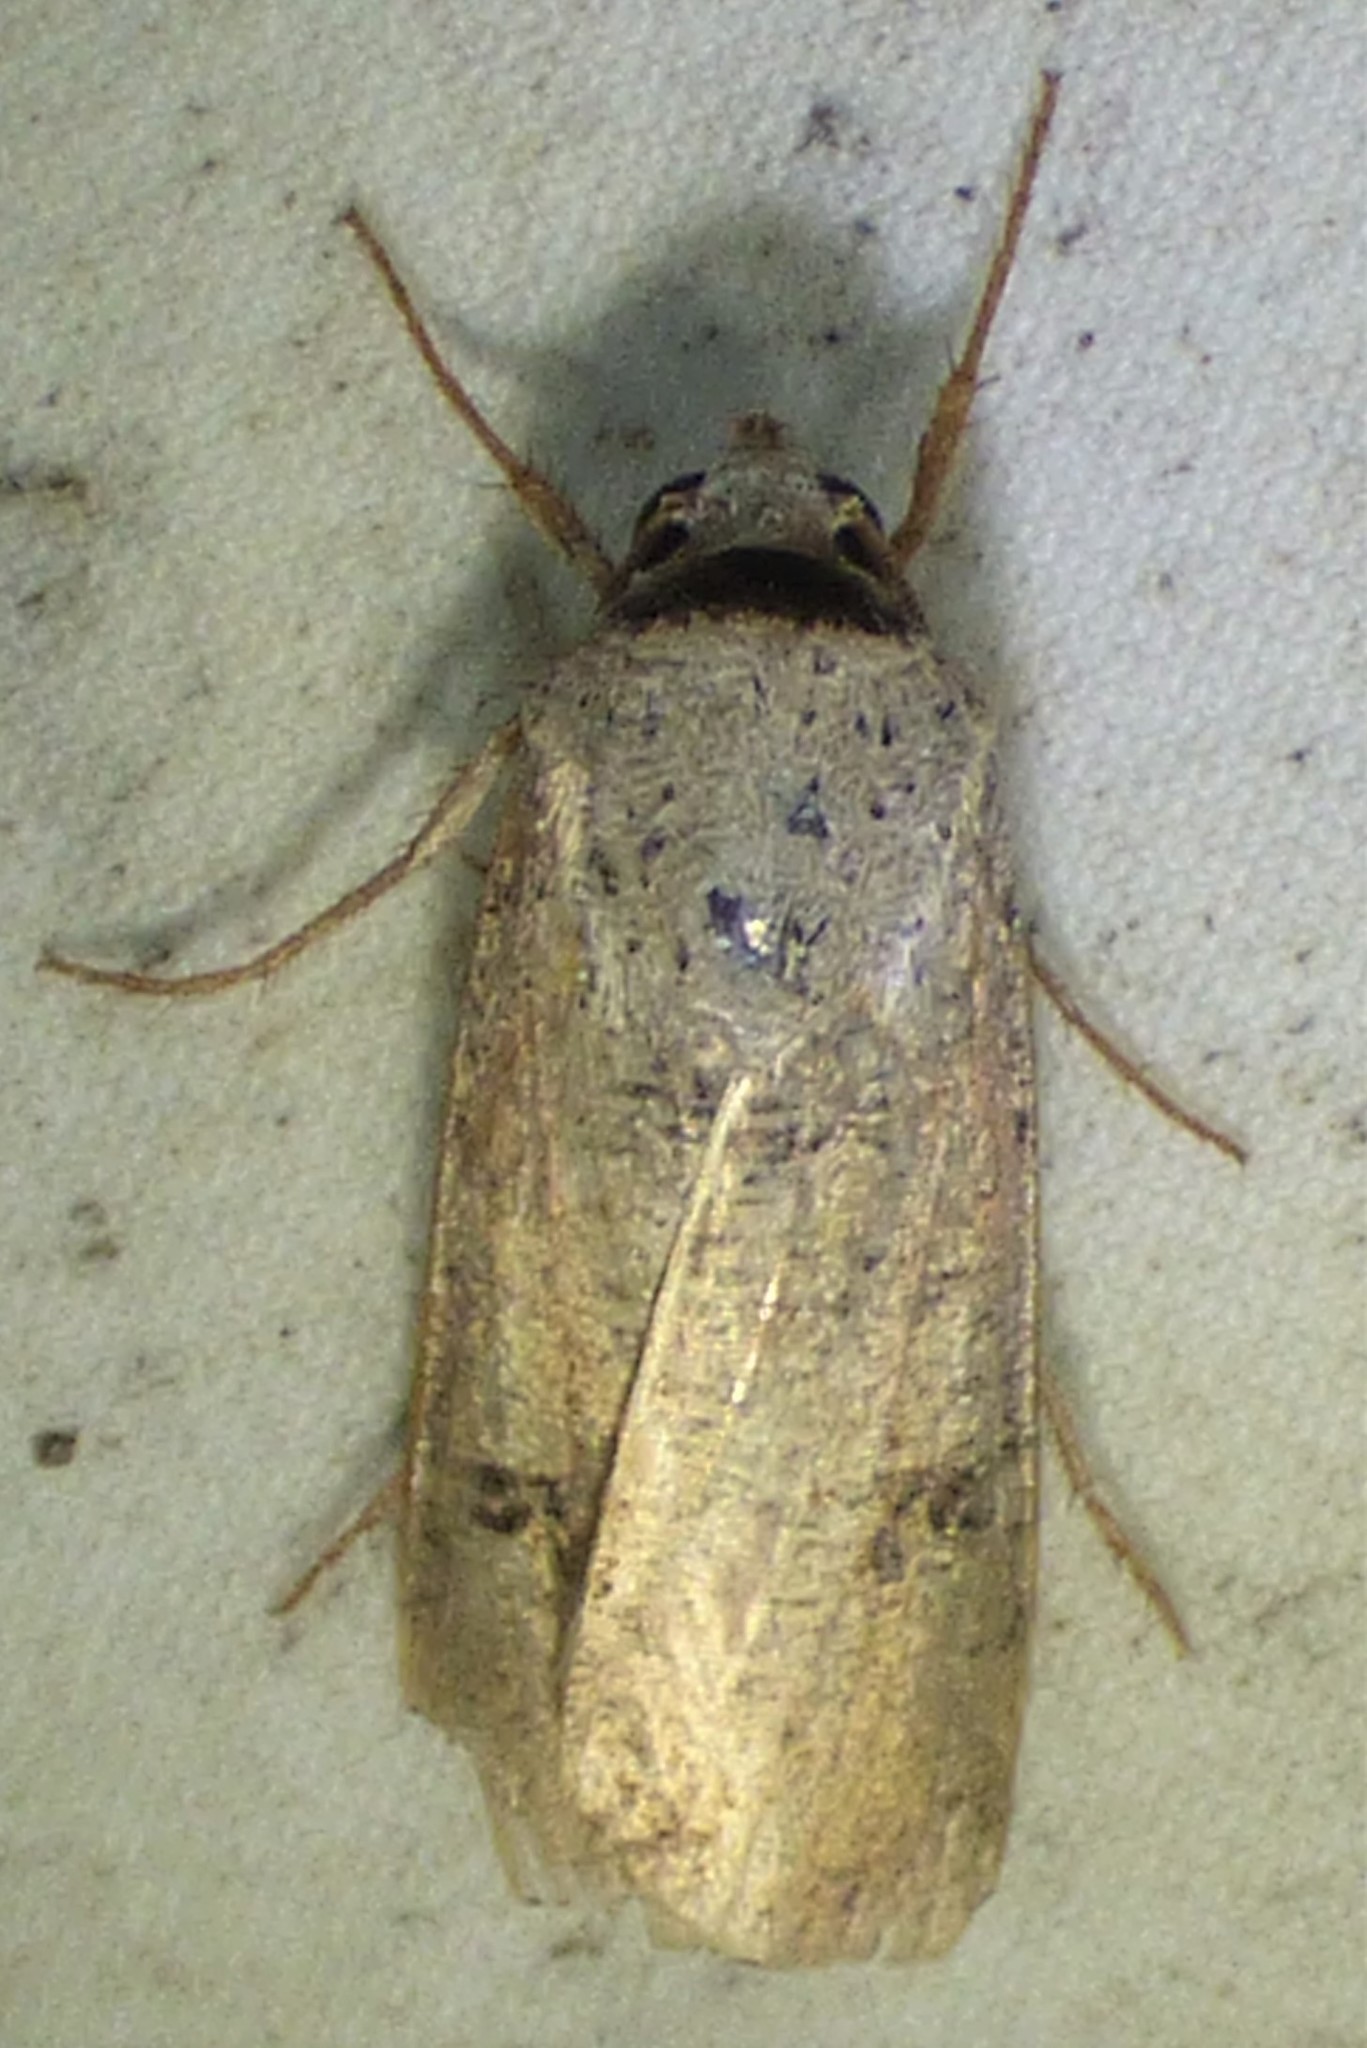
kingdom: Animalia
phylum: Arthropoda
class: Insecta
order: Lepidoptera
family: Noctuidae
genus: Anicla
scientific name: Anicla infecta
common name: Green cutworm
